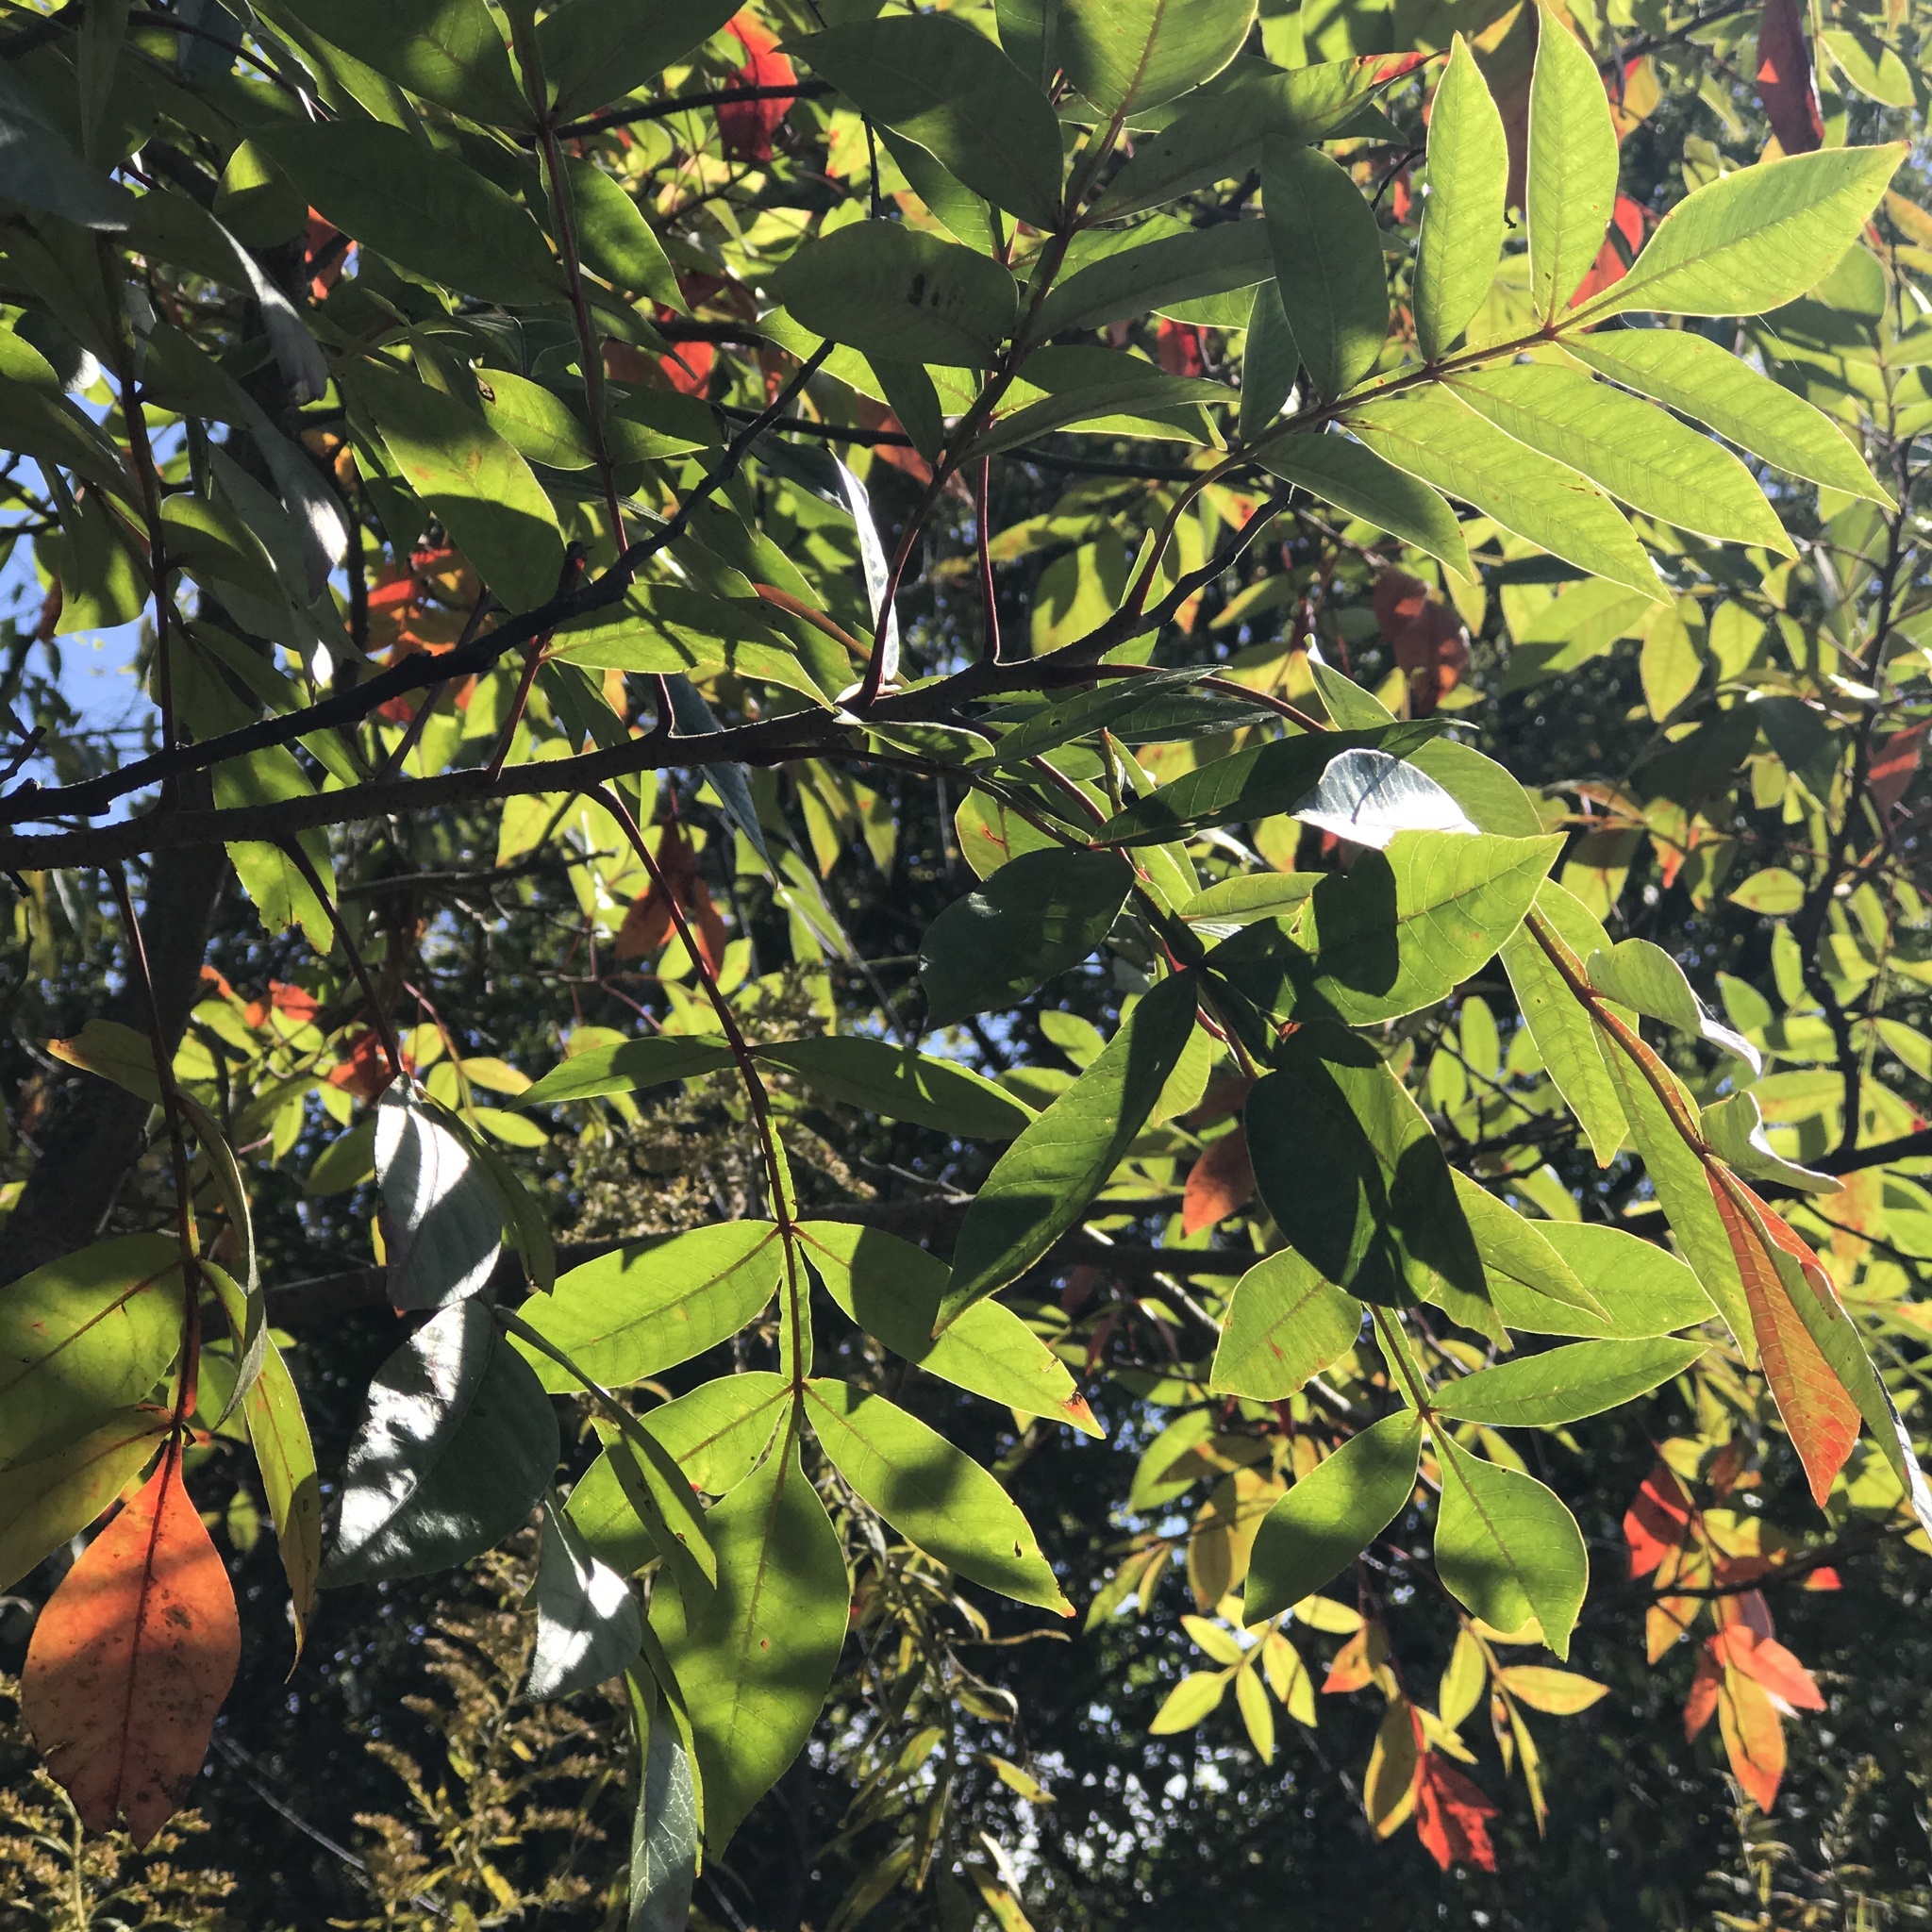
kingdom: Plantae
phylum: Tracheophyta
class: Magnoliopsida
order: Sapindales
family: Anacardiaceae
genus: Rhus
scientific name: Rhus copallina
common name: Shining sumac
